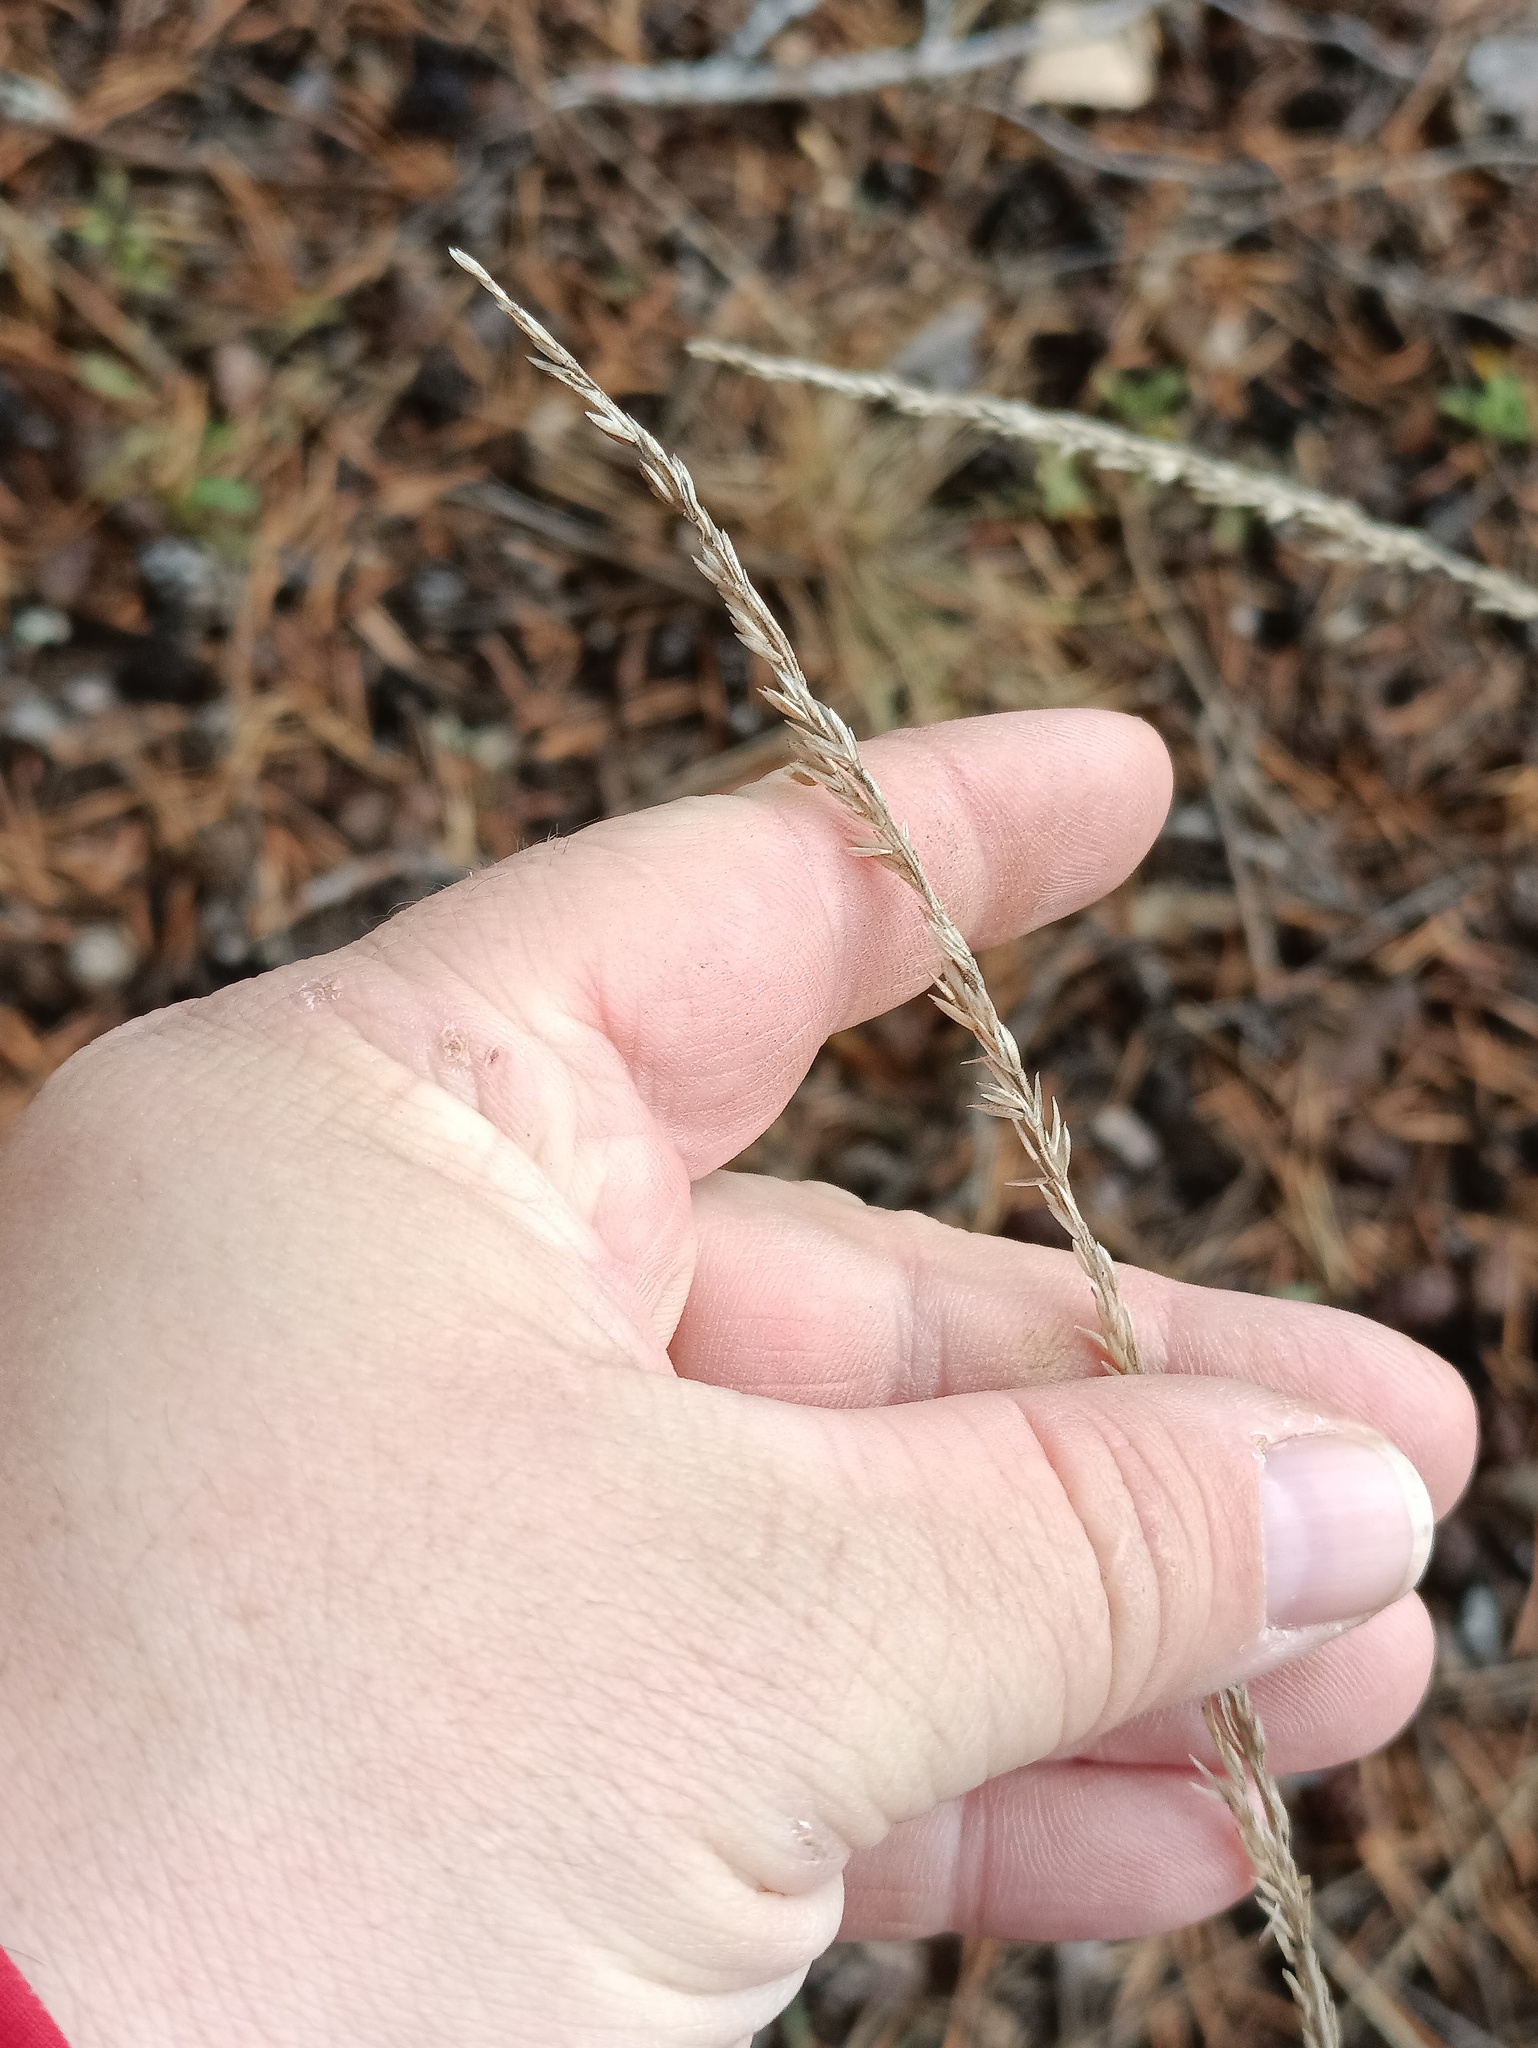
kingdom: Plantae
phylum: Tracheophyta
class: Liliopsida
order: Poales
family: Poaceae
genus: Koeleria
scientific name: Koeleria glauca
